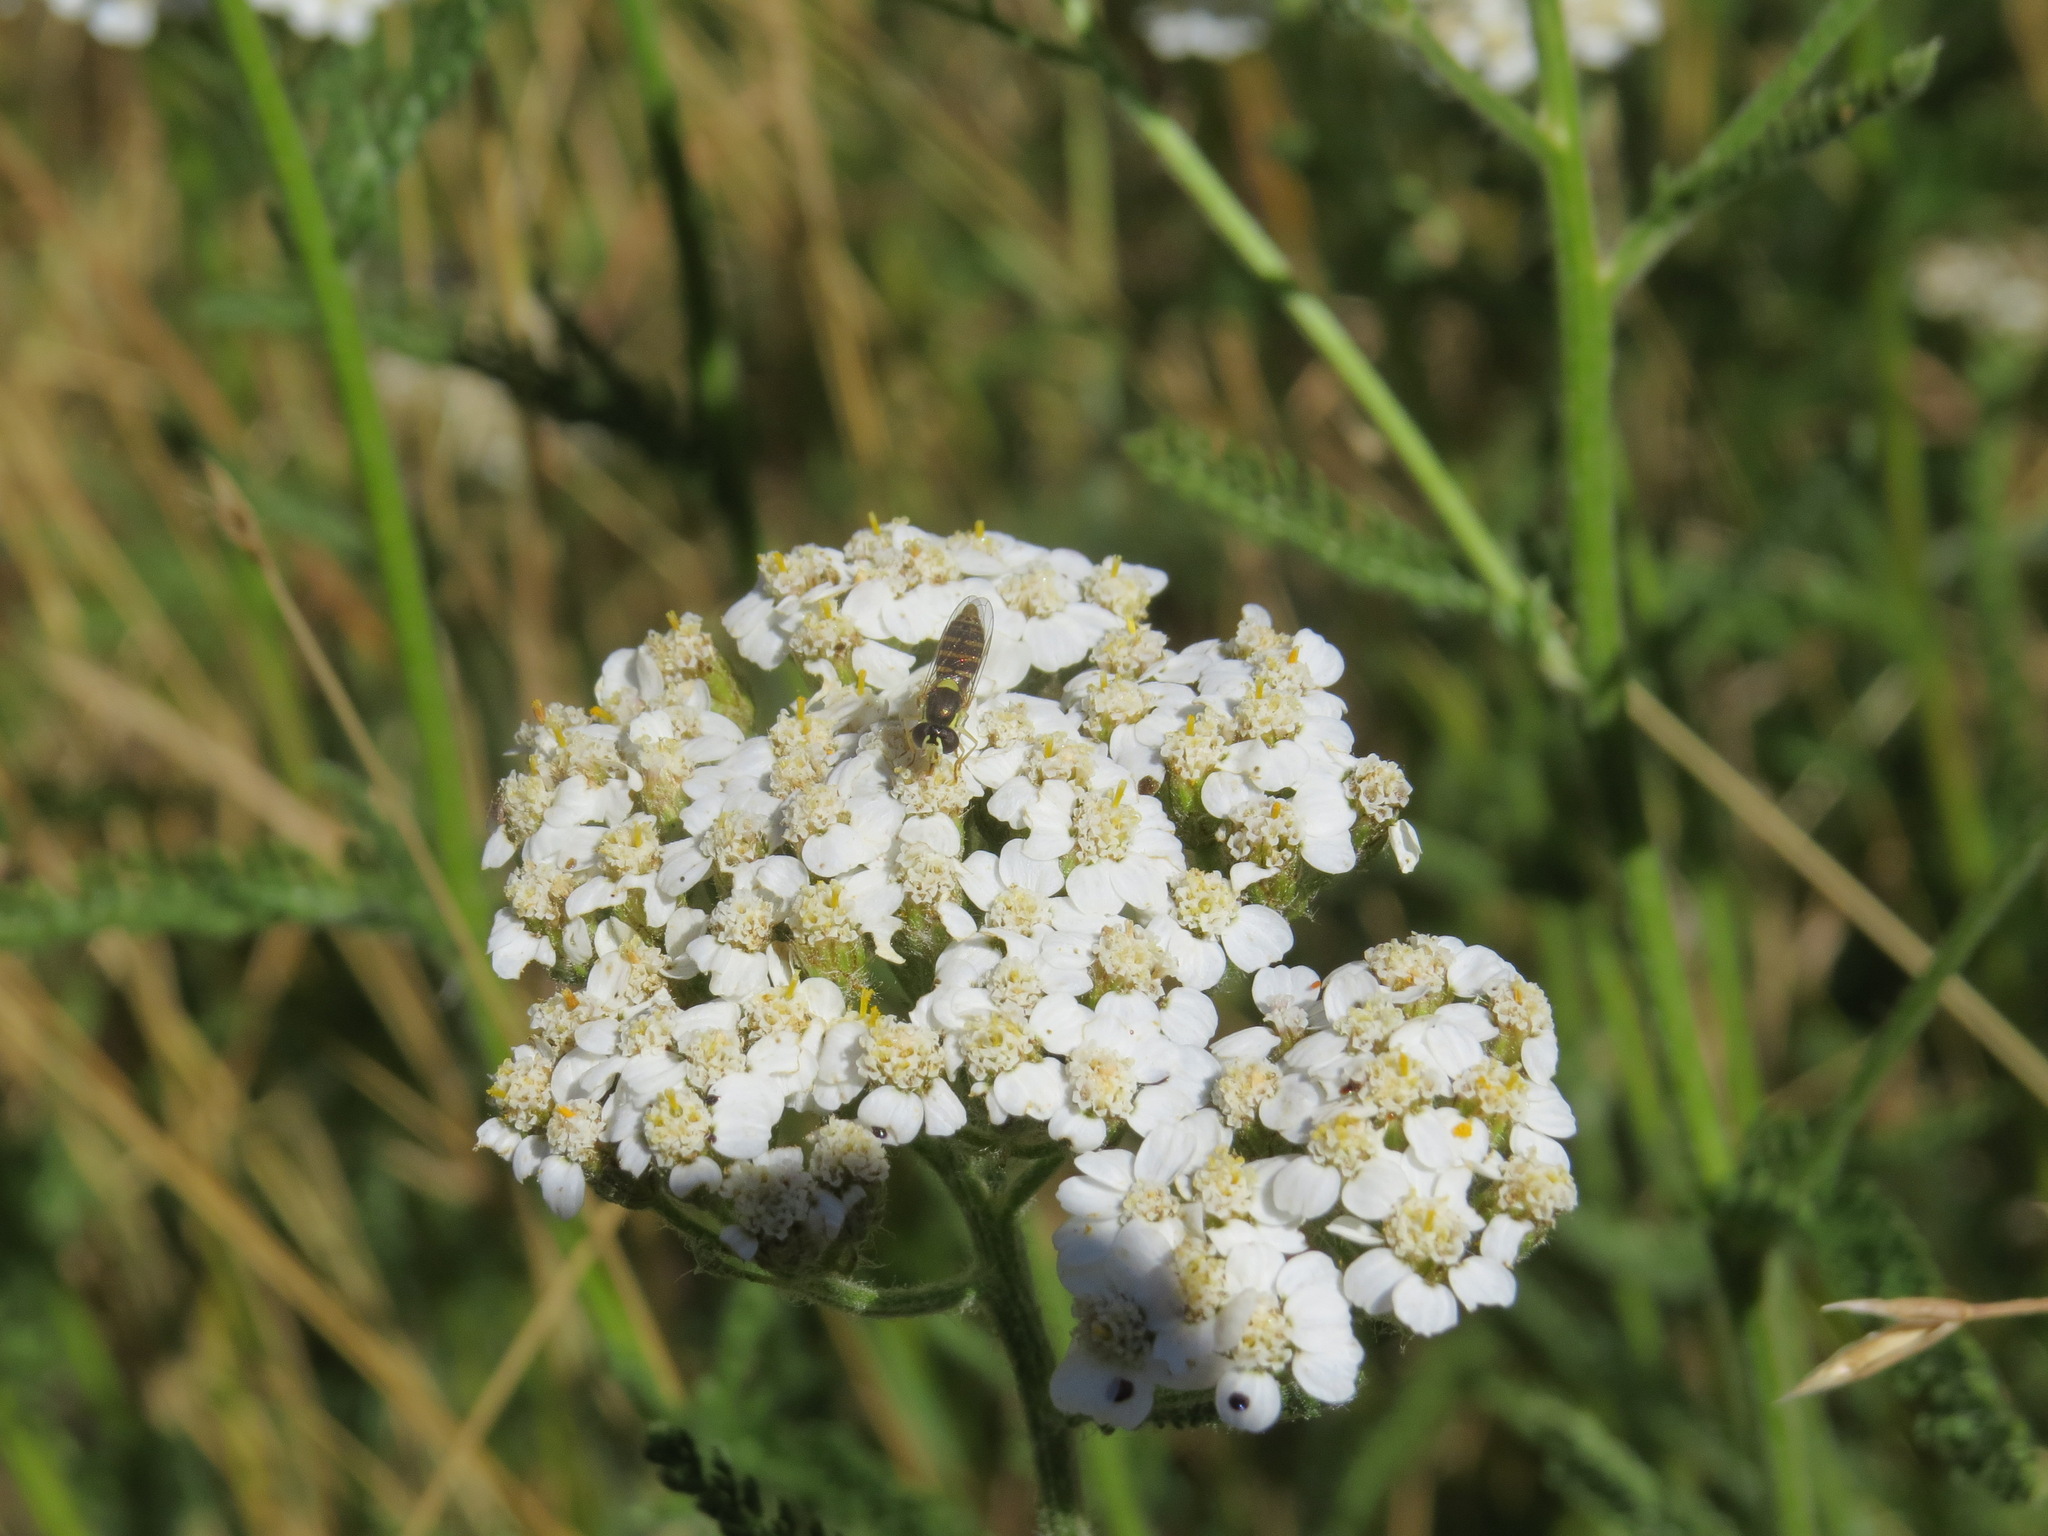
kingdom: Animalia
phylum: Arthropoda
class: Insecta
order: Diptera
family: Syrphidae
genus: Sphaerophoria
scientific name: Sphaerophoria sulphuripes
